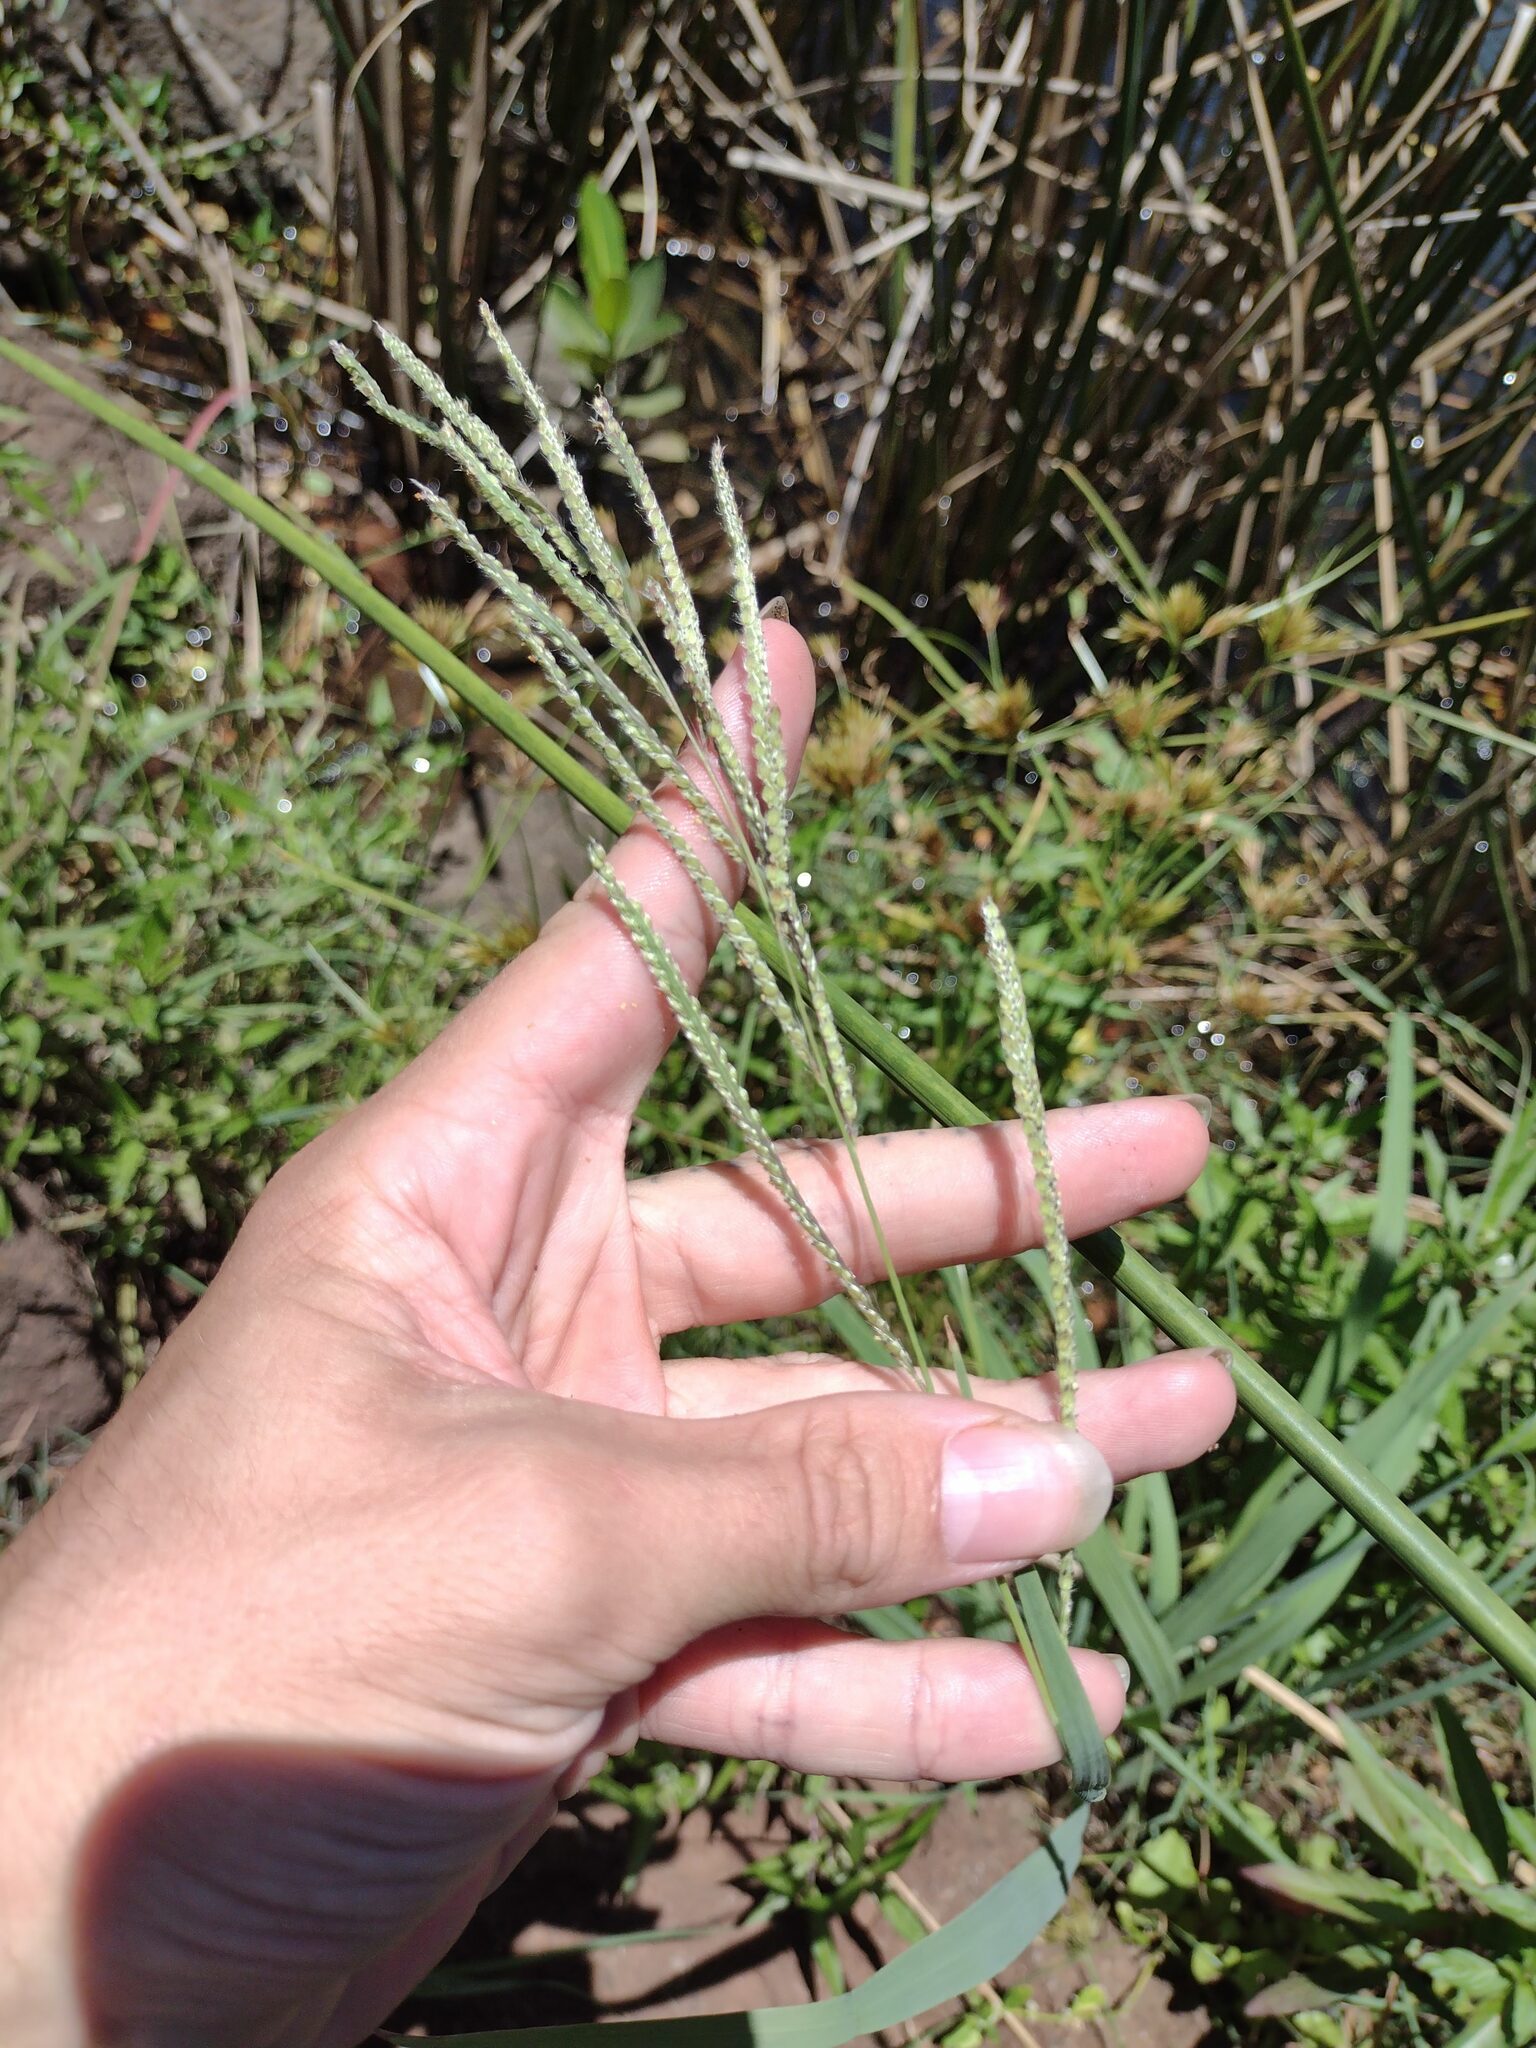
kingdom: Plantae
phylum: Tracheophyta
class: Liliopsida
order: Poales
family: Poaceae
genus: Paspalum
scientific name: Paspalum urvillei
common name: Vasey's grass
